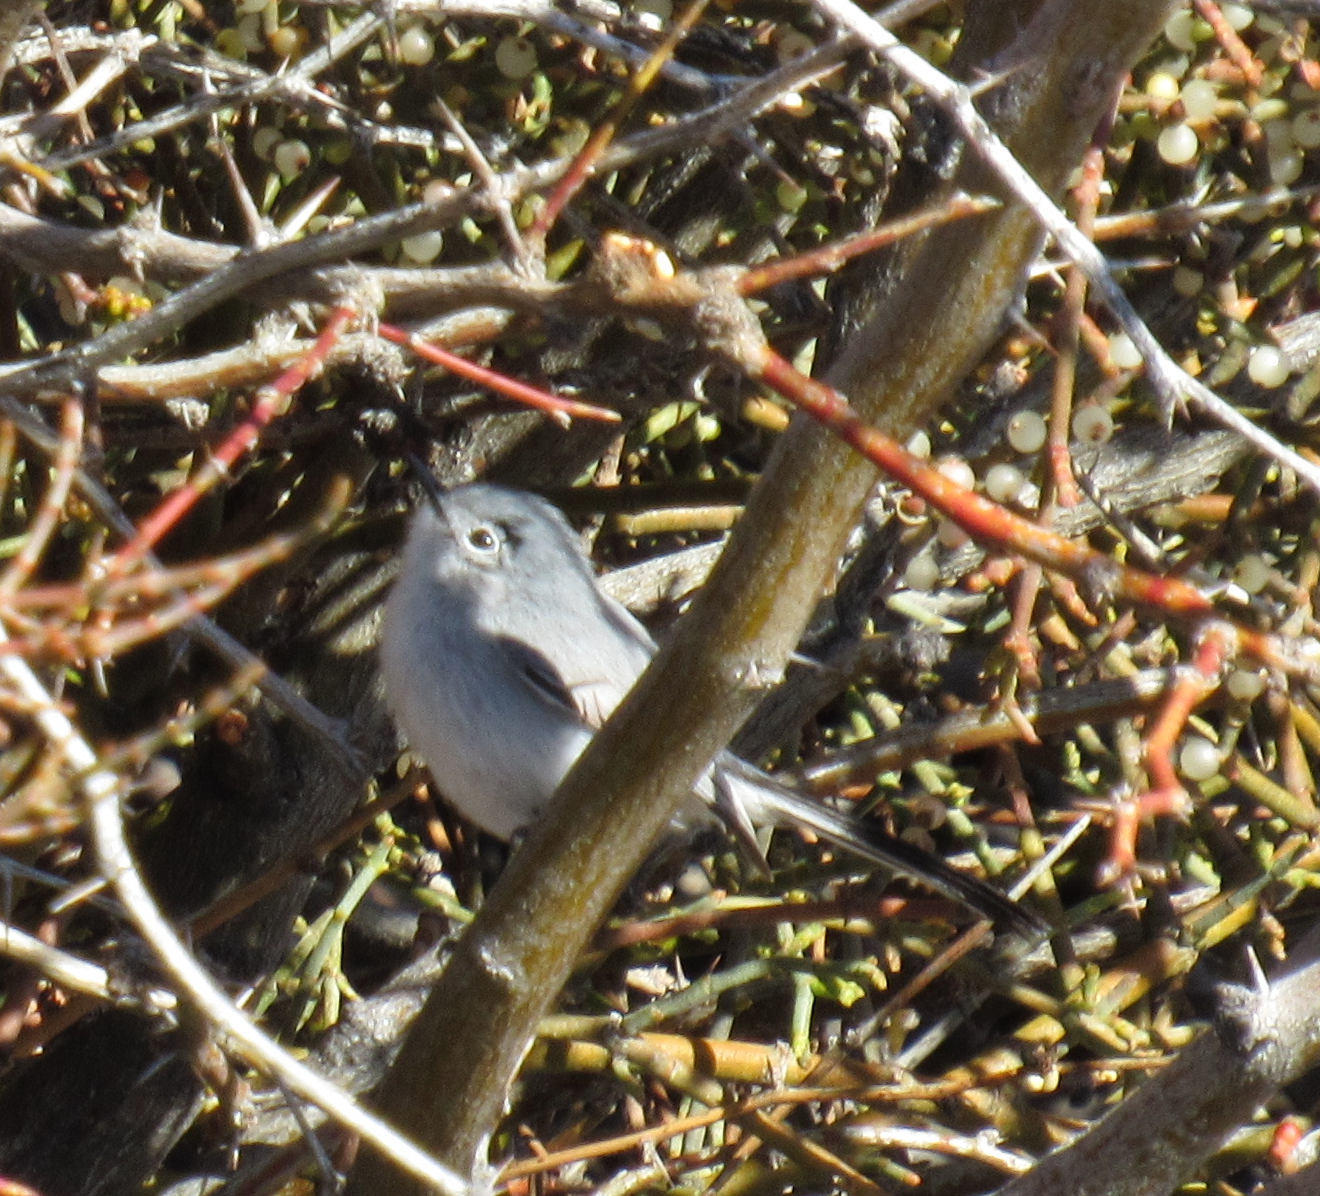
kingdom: Animalia
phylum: Chordata
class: Aves
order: Passeriformes
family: Polioptilidae
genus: Polioptila
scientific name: Polioptila melanura
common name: Black-tailed gnatcatcher
